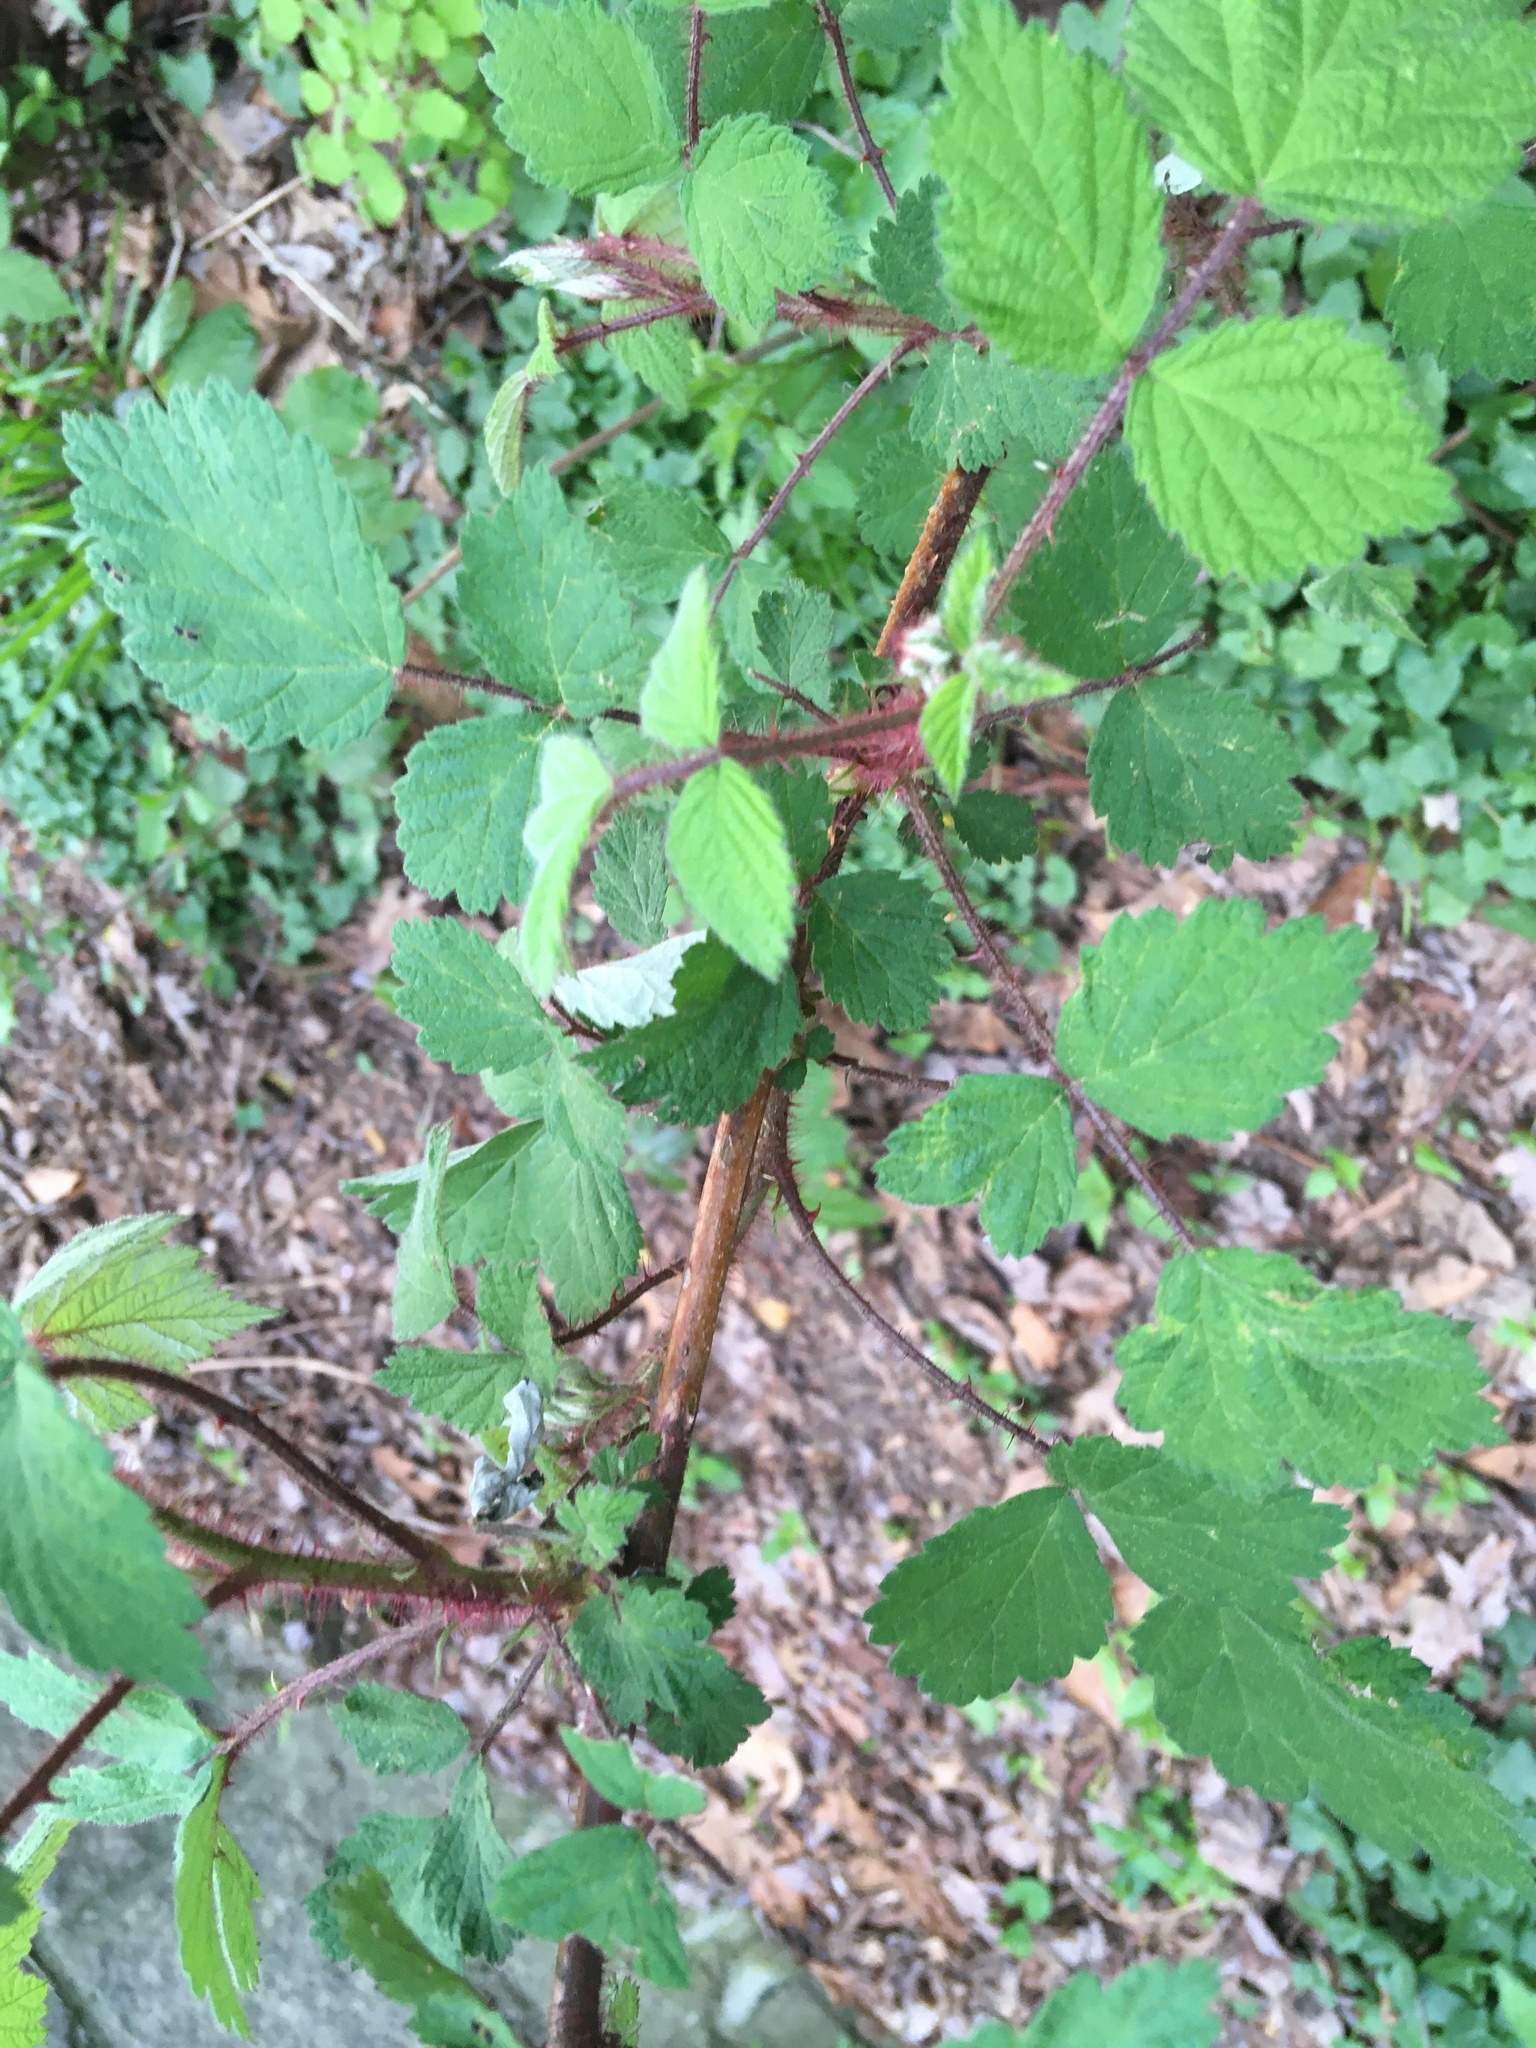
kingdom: Plantae
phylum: Tracheophyta
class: Magnoliopsida
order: Rosales
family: Rosaceae
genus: Rubus
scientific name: Rubus phoenicolasius
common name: Japanese wineberry
